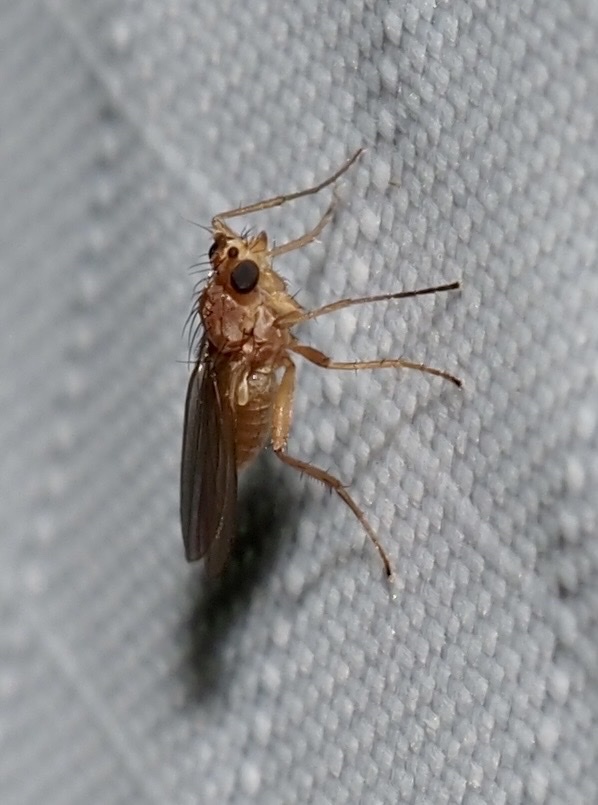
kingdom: Animalia
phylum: Arthropoda
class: Insecta
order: Diptera
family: Lonchopteridae
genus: Lonchoptera
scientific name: Lonchoptera bifurcata
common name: Spear-winged fly
